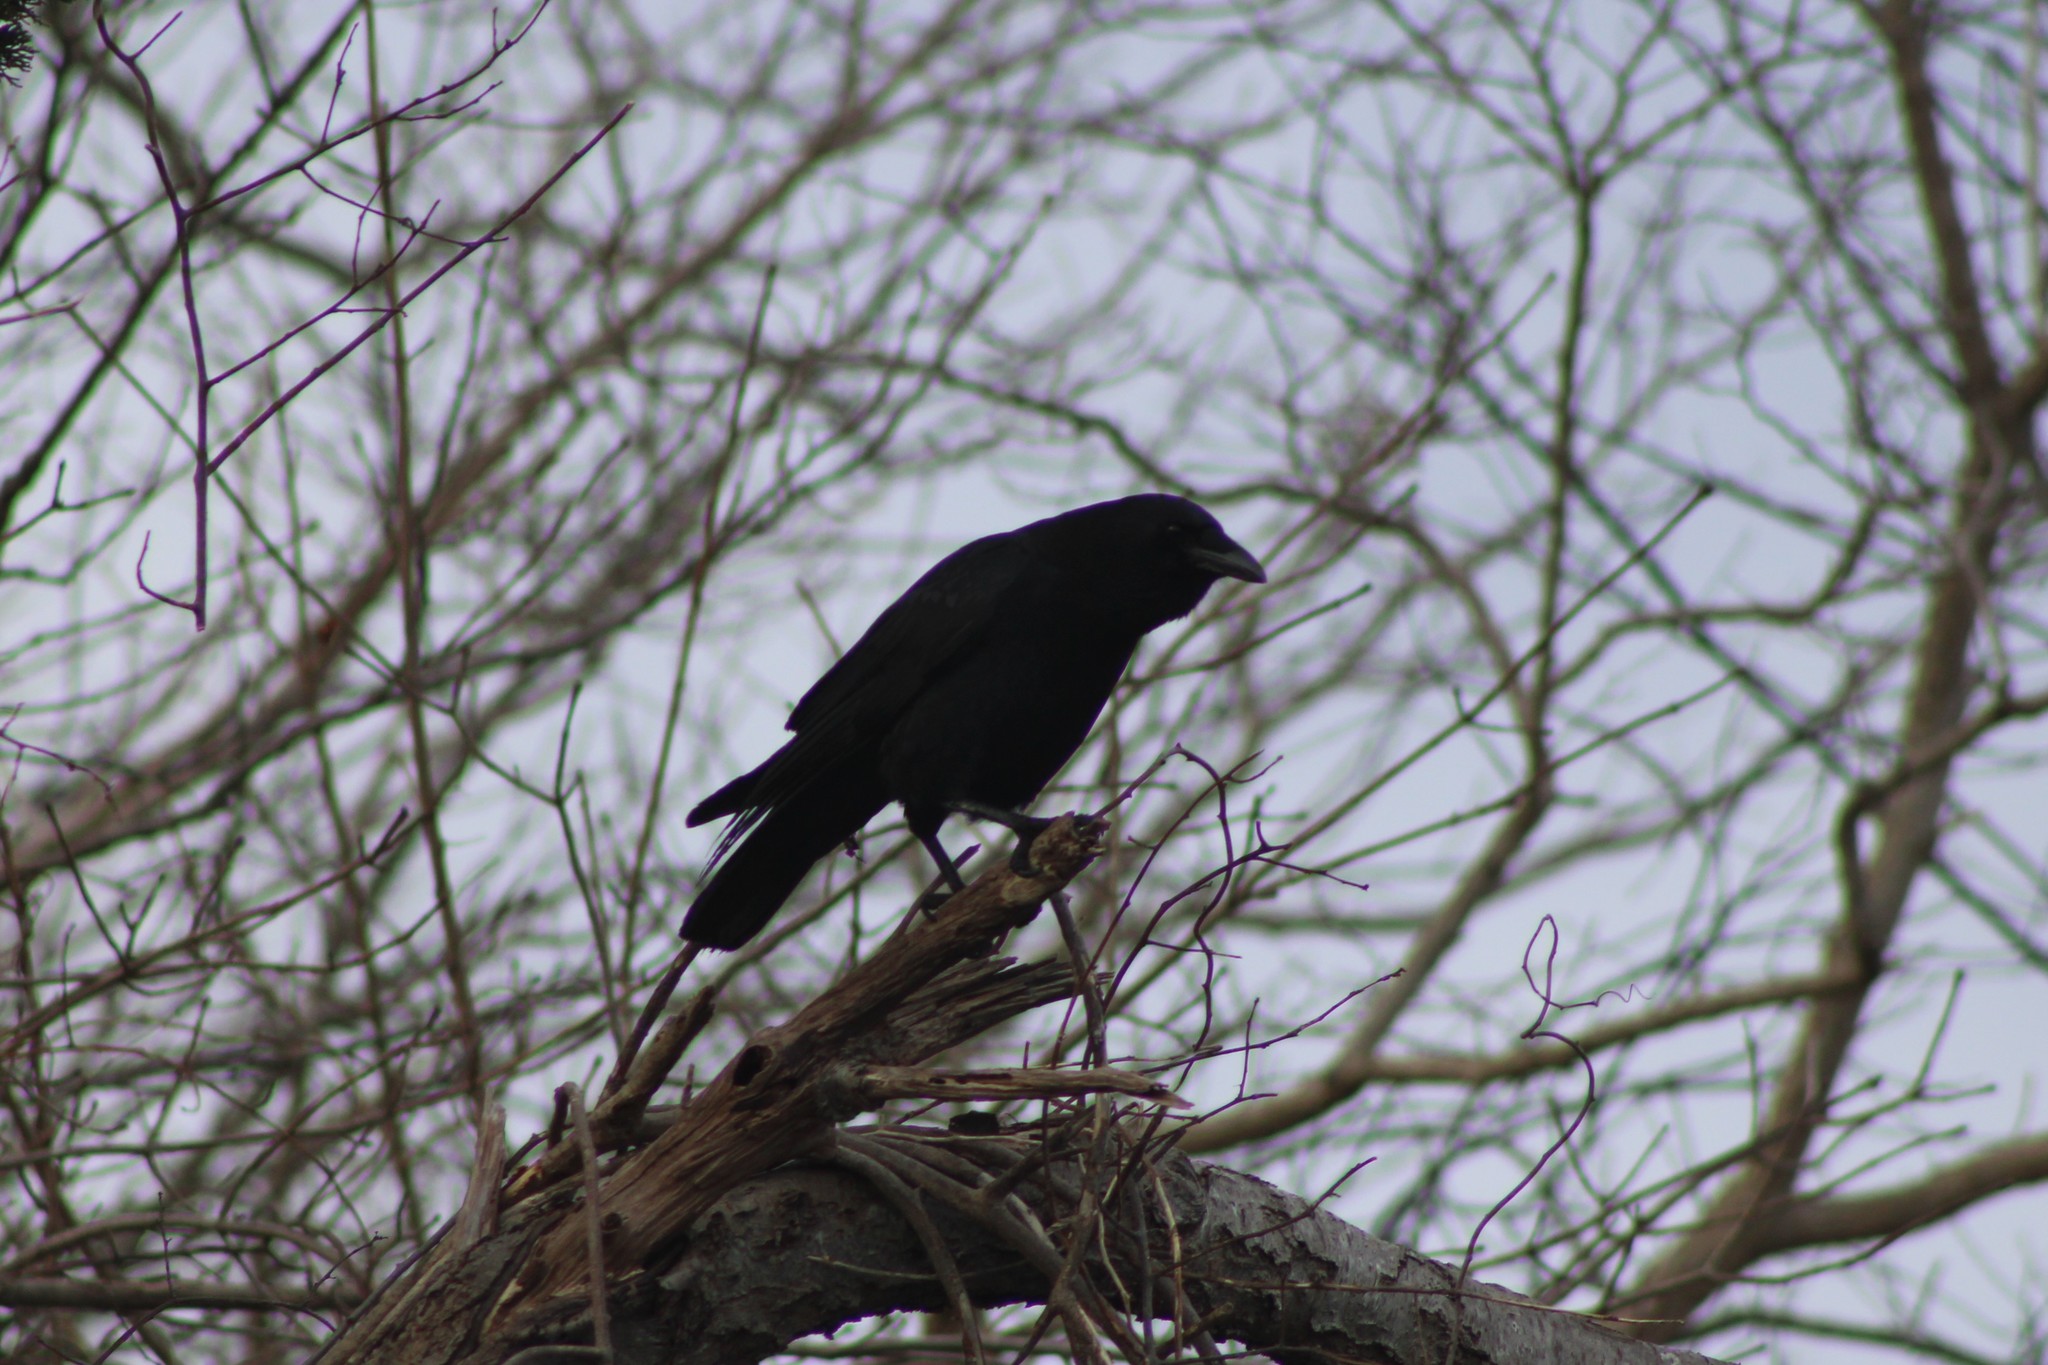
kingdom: Animalia
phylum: Chordata
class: Aves
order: Passeriformes
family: Corvidae
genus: Corvus
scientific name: Corvus brachyrhynchos
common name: American crow
